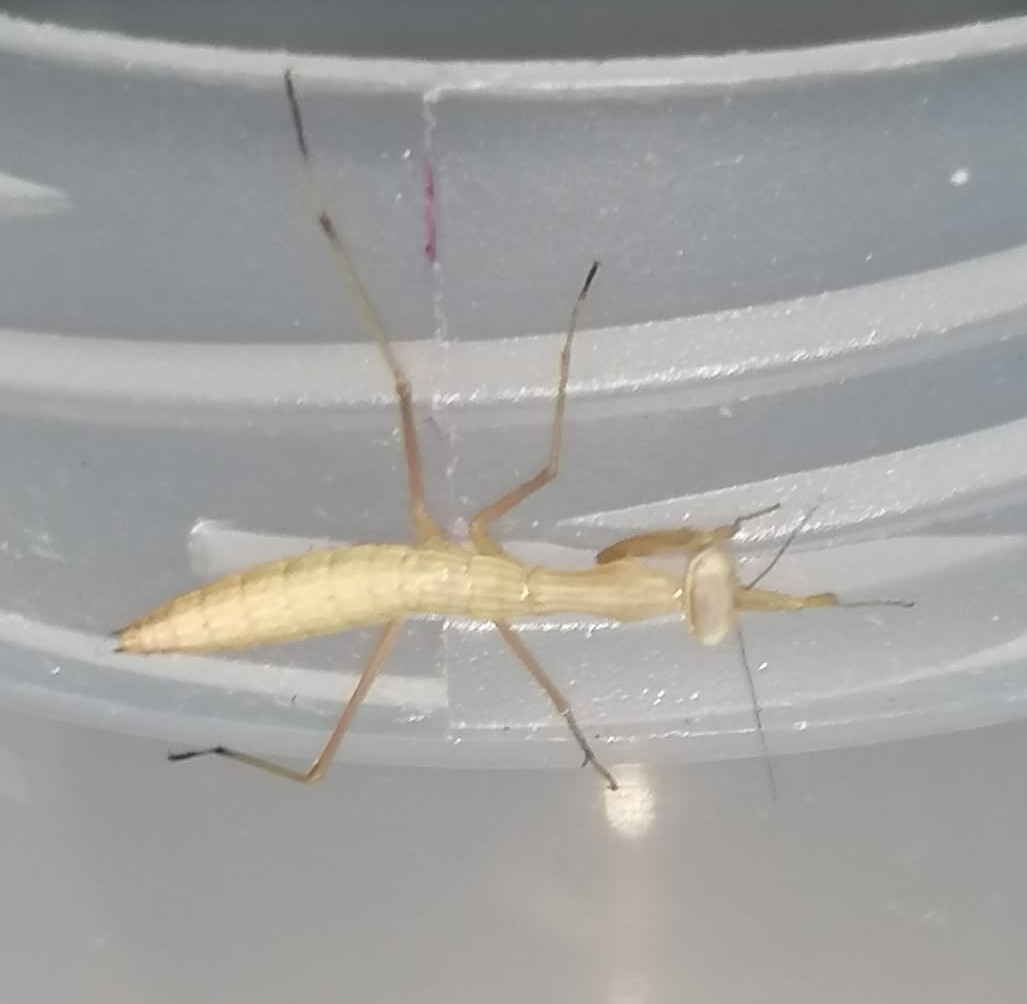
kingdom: Animalia
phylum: Arthropoda
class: Insecta
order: Mantodea
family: Mantidae
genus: Mantis
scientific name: Mantis religiosa
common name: Praying mantis
